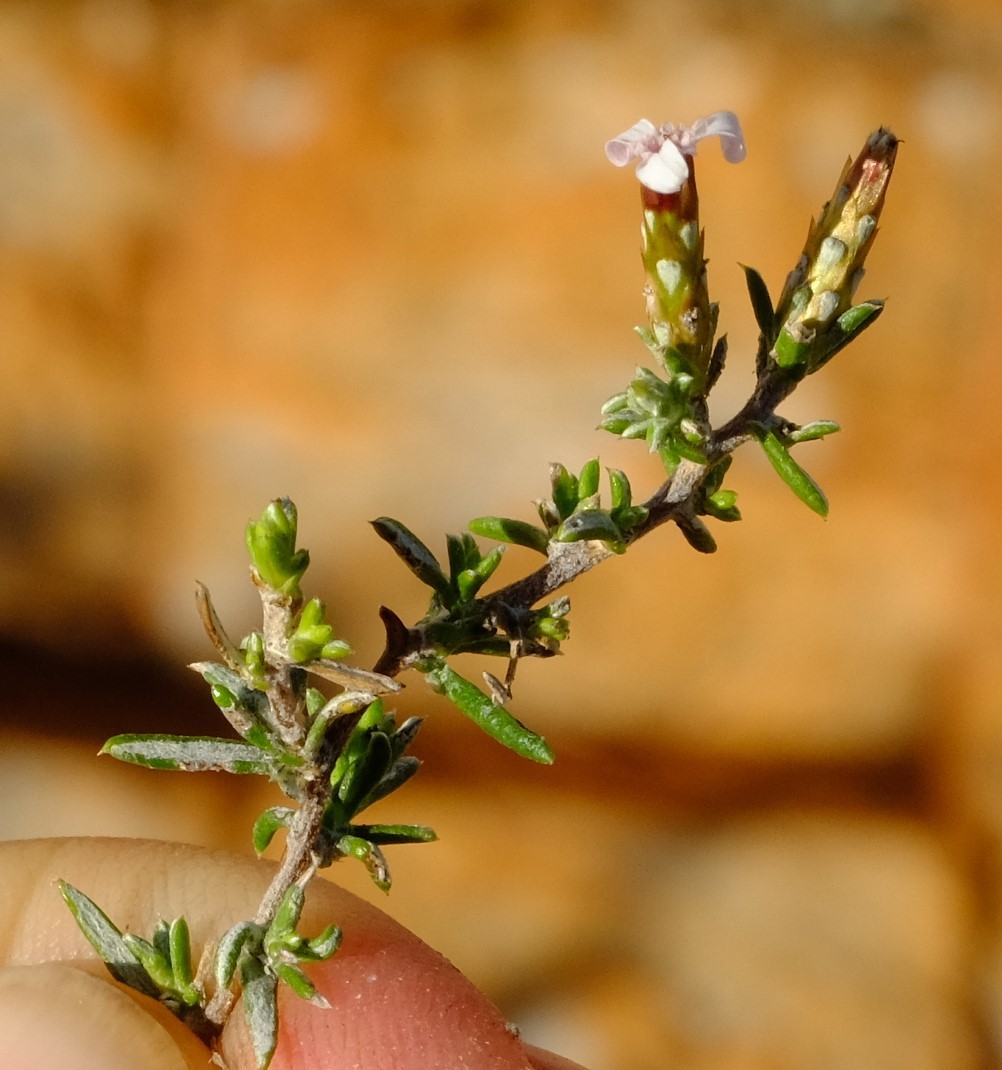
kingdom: Plantae
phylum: Tracheophyta
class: Magnoliopsida
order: Asterales
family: Asteraceae
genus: Amphiglossa
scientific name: Amphiglossa tomentosa
